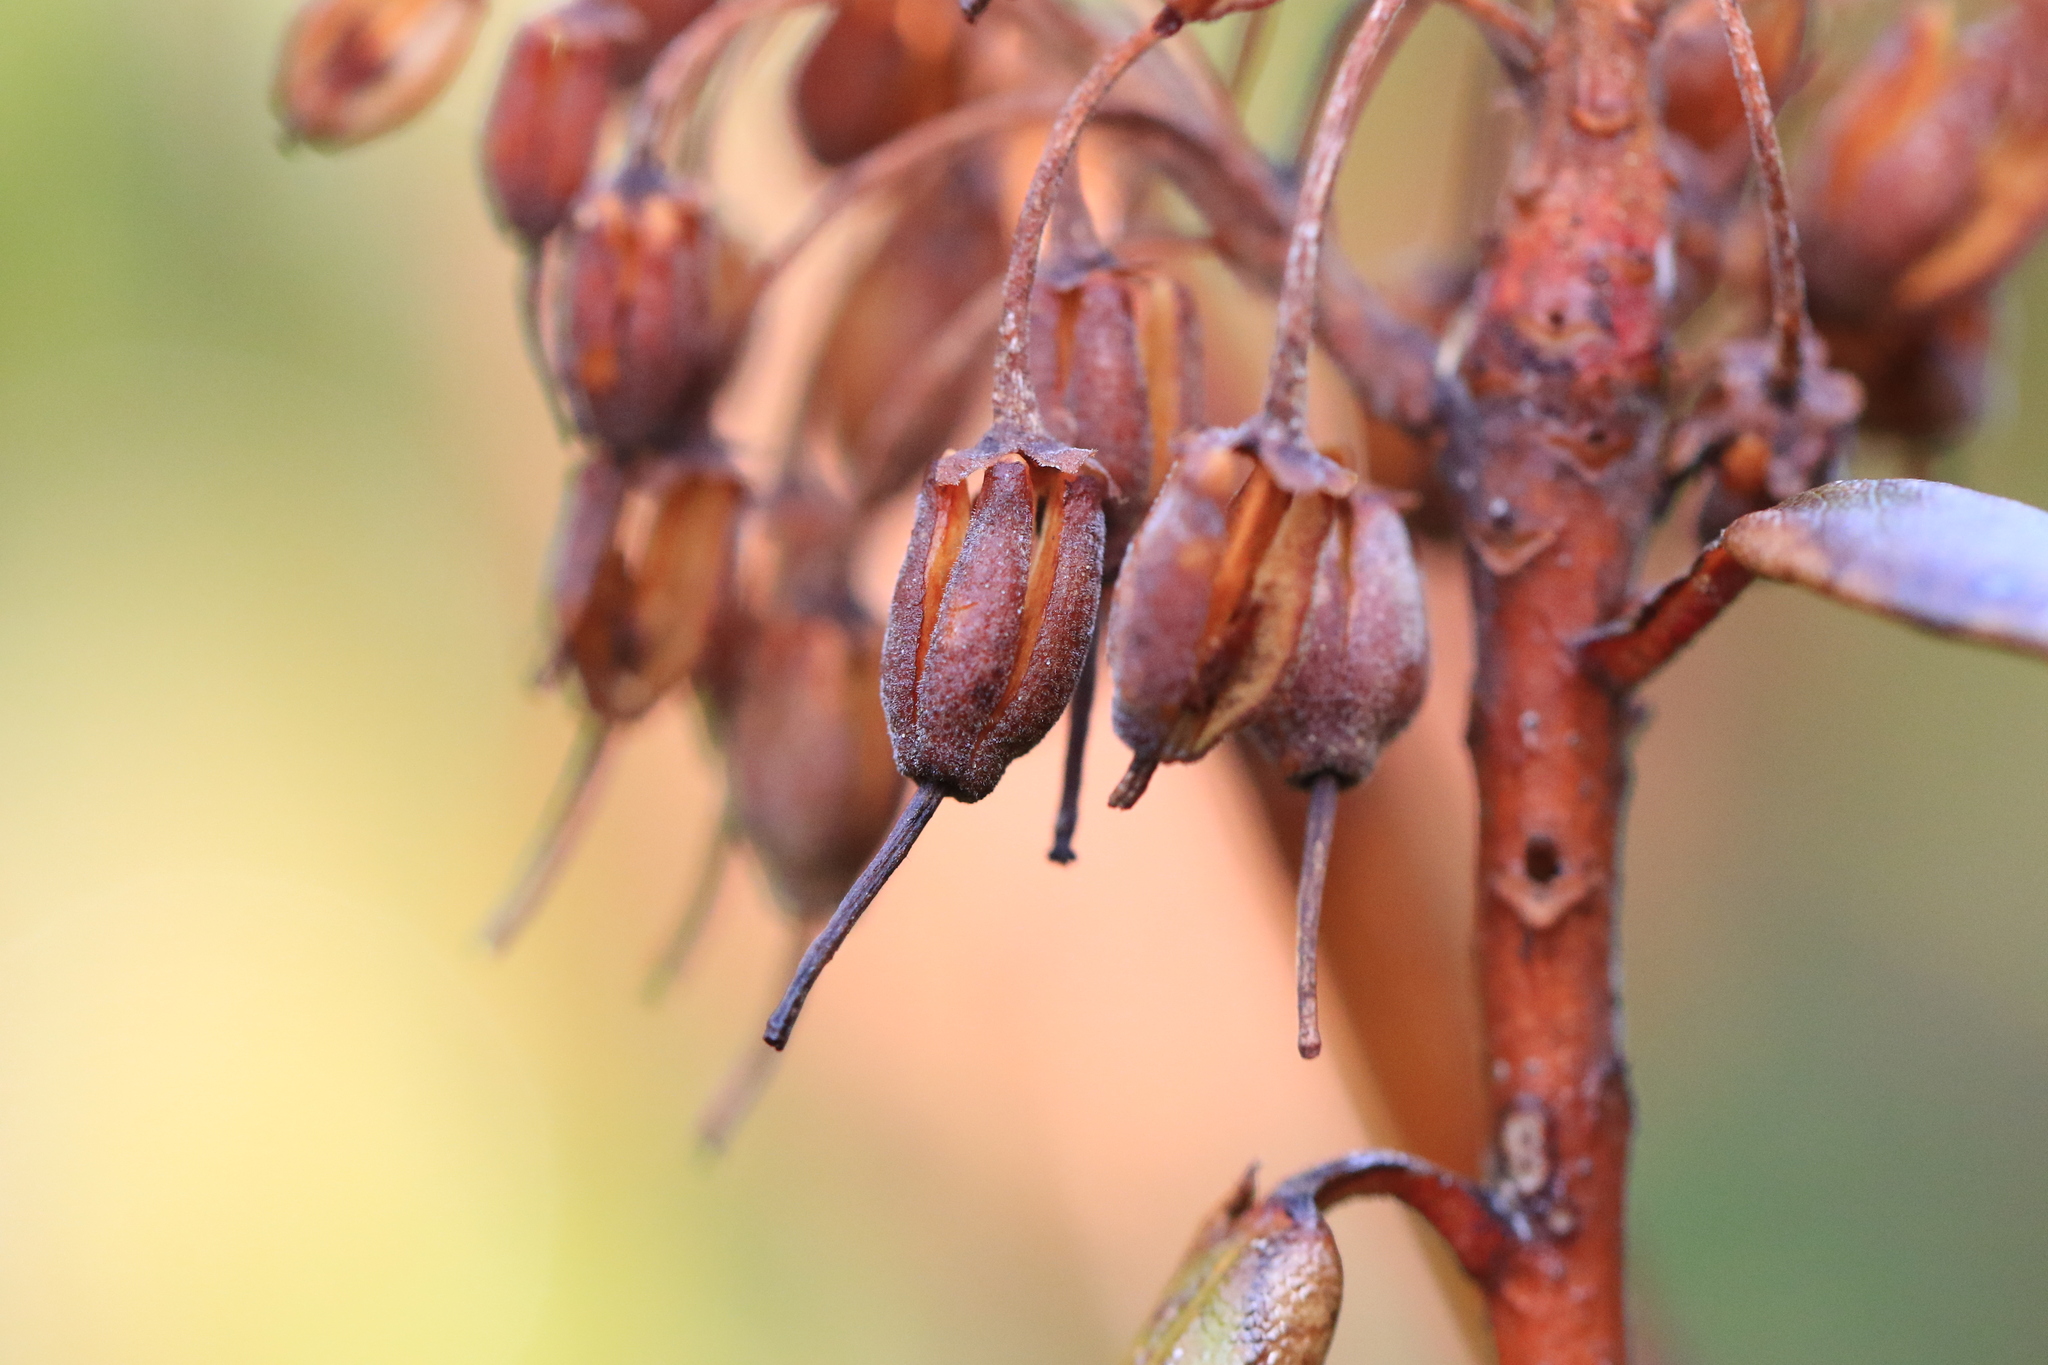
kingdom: Plantae
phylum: Tracheophyta
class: Magnoliopsida
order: Ericales
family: Ericaceae
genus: Rhododendron
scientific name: Rhododendron columbianum
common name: Western labrador tea
